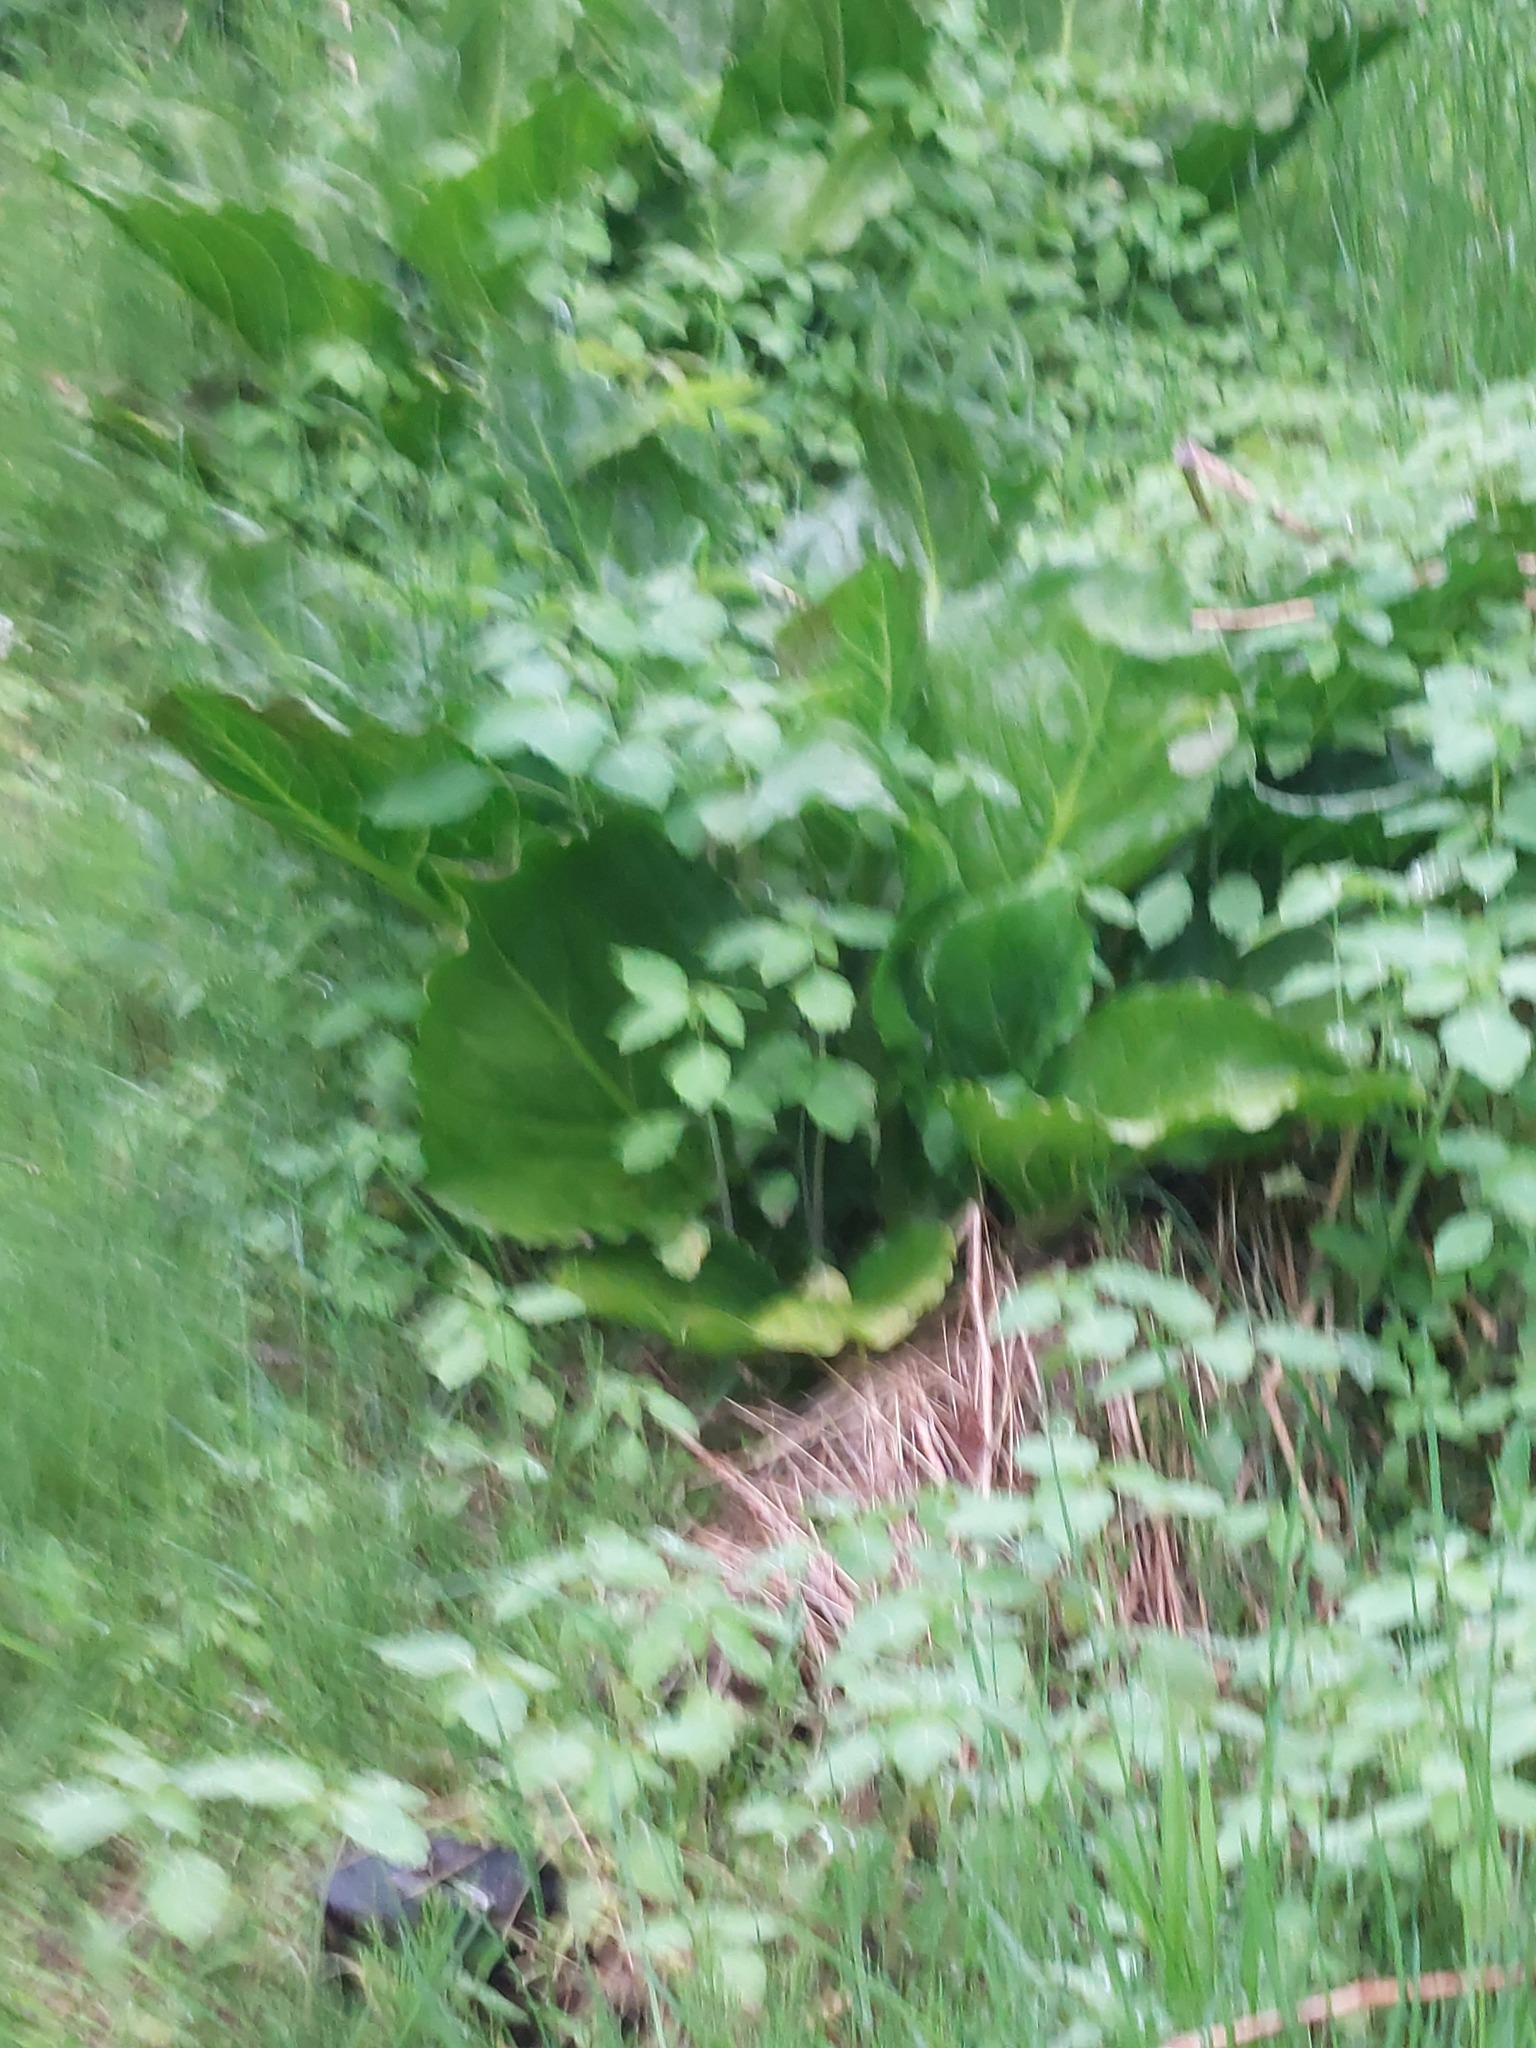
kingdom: Plantae
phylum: Tracheophyta
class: Liliopsida
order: Alismatales
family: Araceae
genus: Symplocarpus
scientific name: Symplocarpus foetidus
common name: Eastern skunk cabbage
